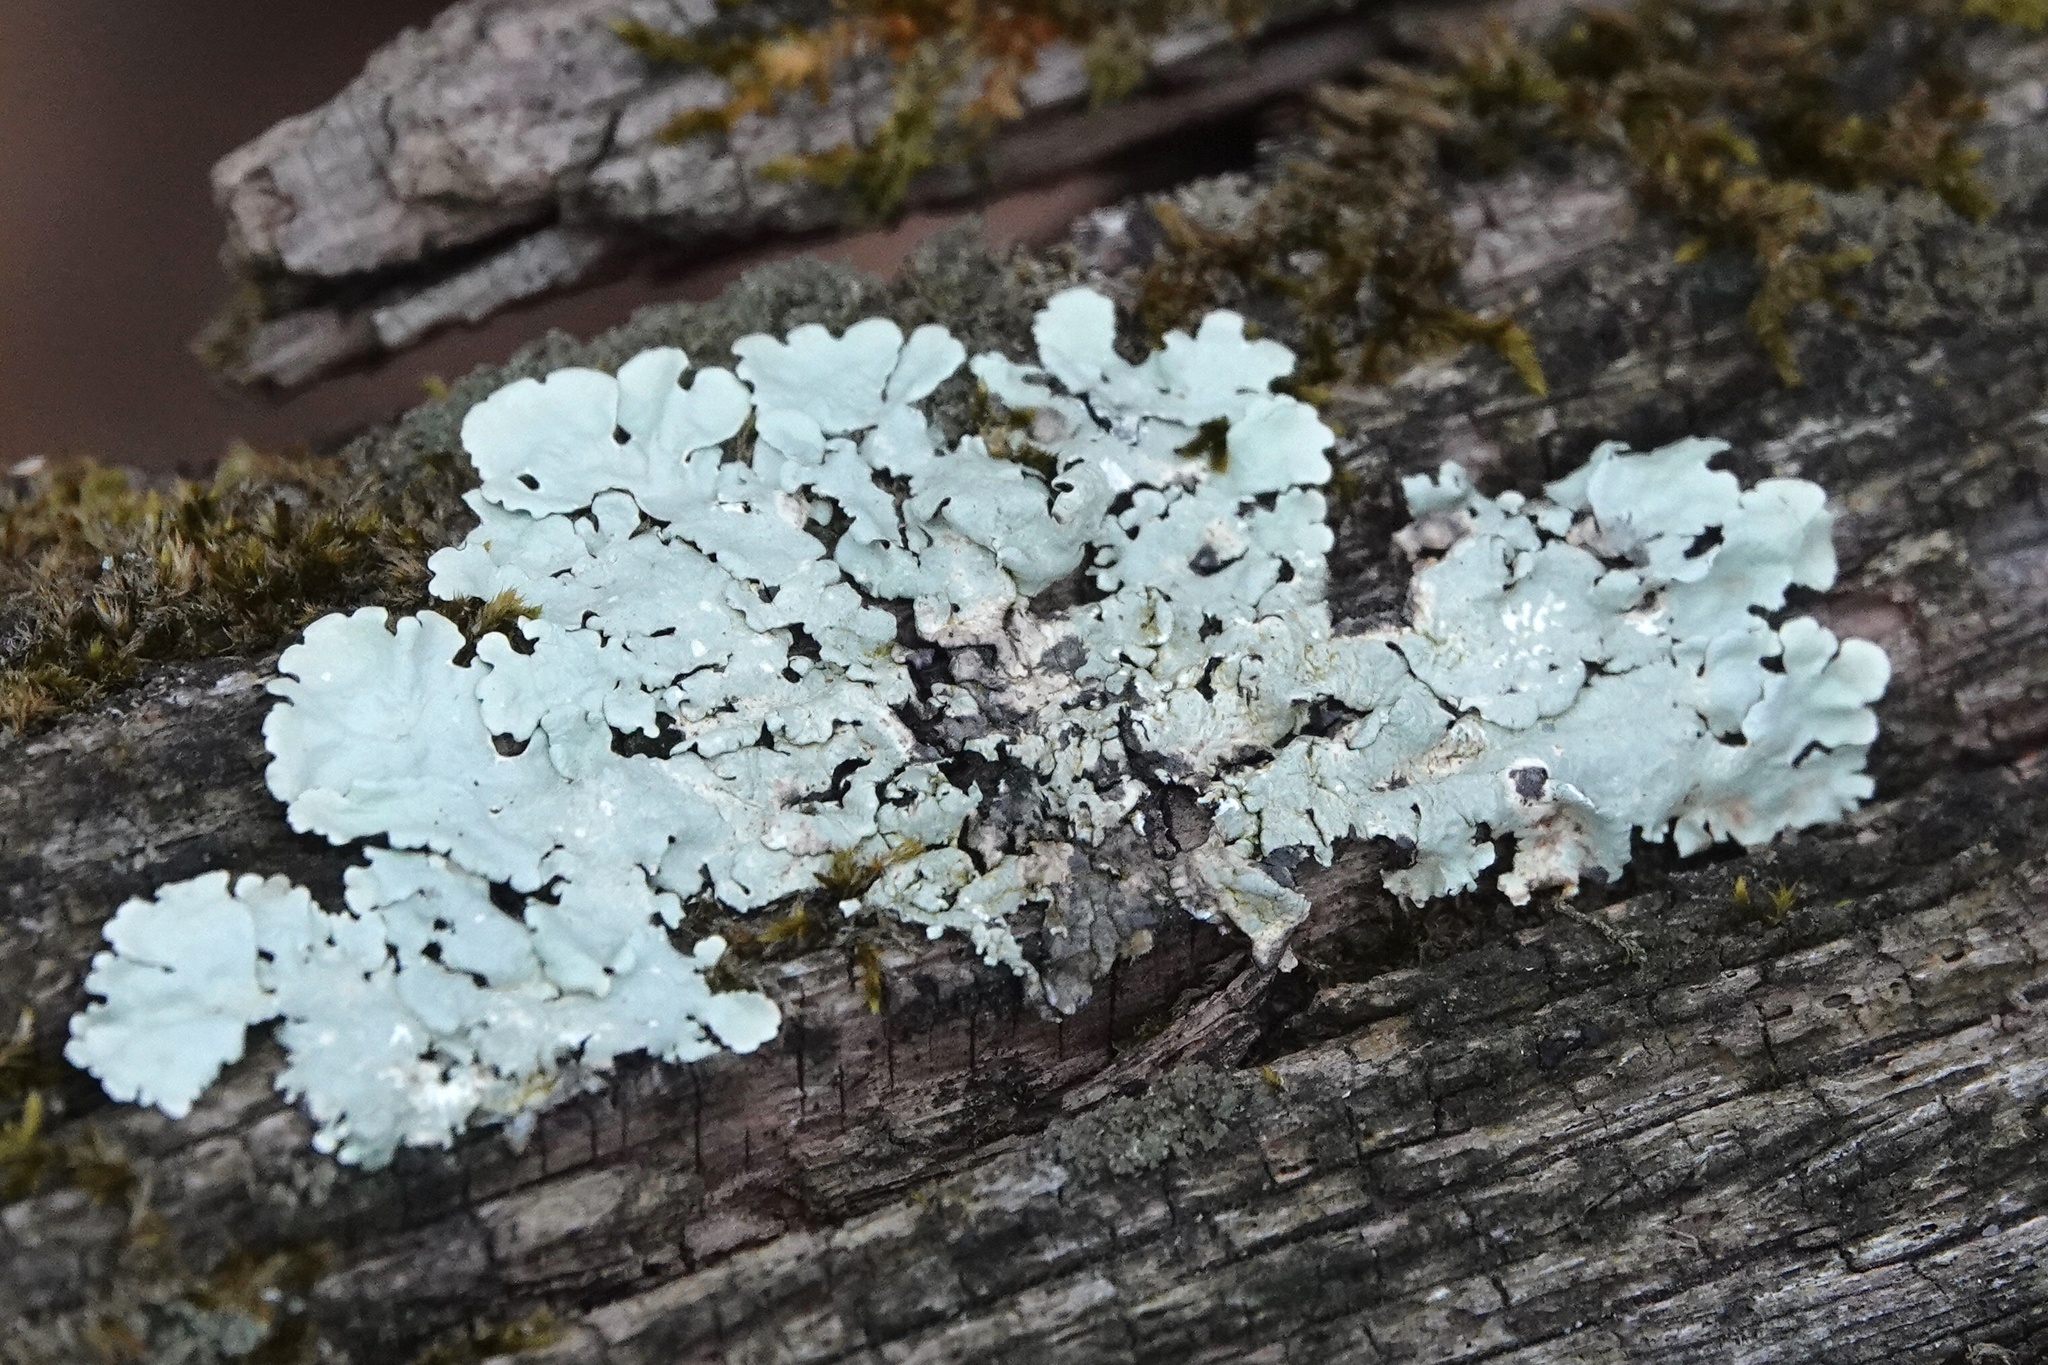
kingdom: Fungi
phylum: Ascomycota
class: Lecanoromycetes
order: Lecanorales
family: Parmeliaceae
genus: Flavoparmelia
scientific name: Flavoparmelia caperata
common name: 40-mile per hour lichen
